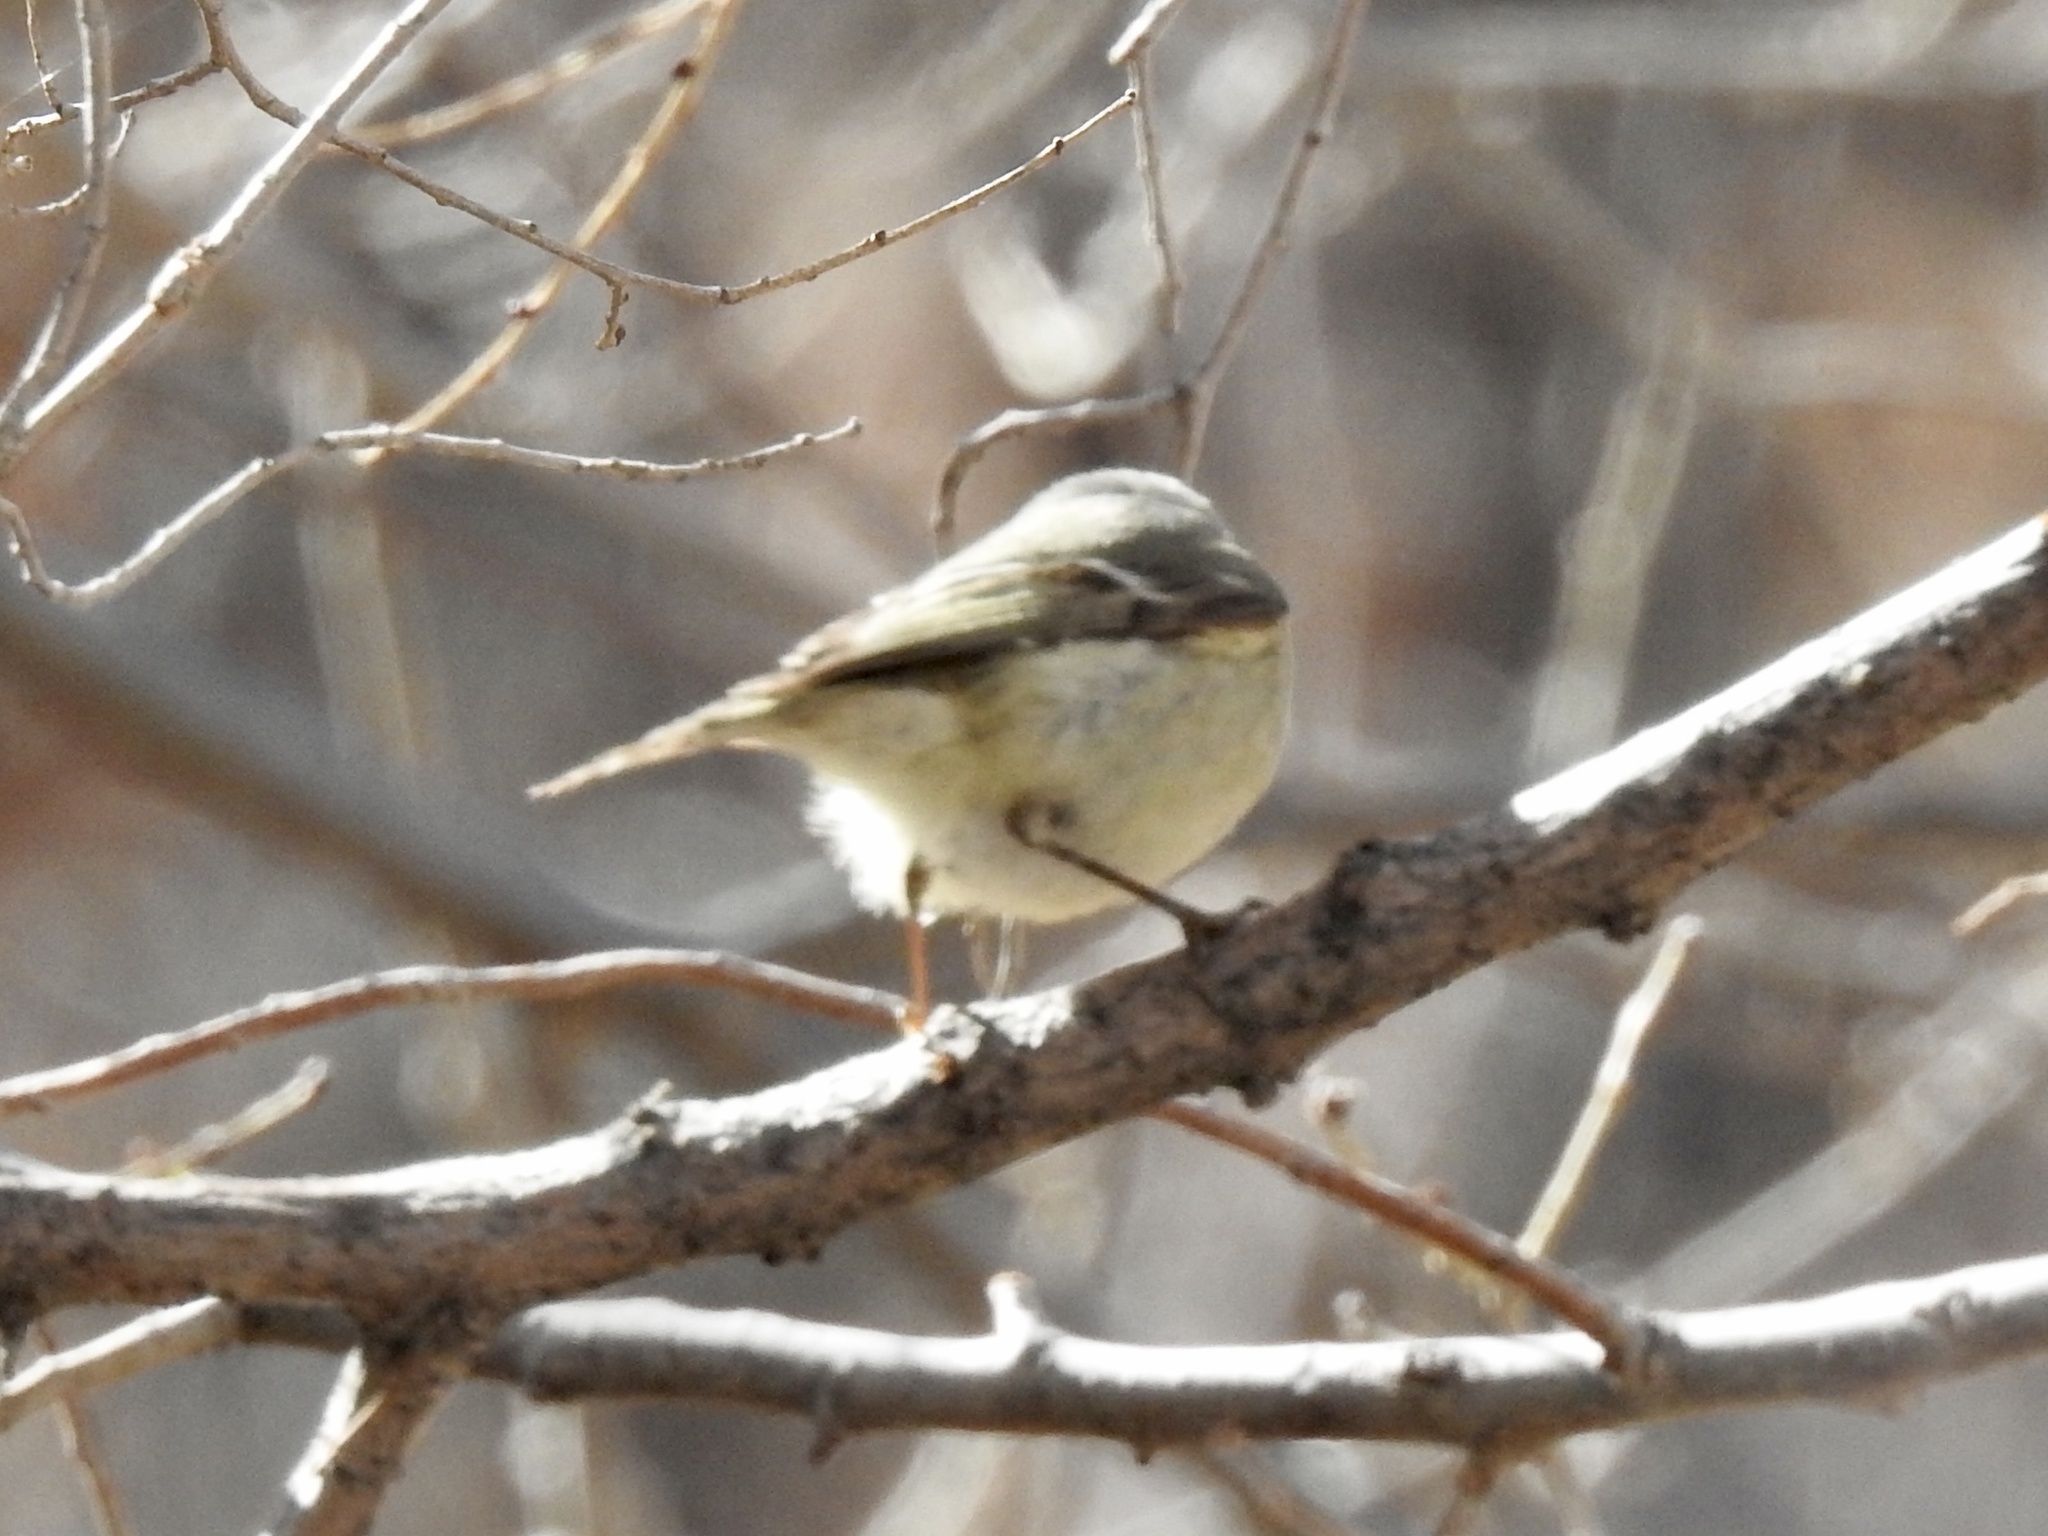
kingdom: Animalia
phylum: Chordata
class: Aves
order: Passeriformes
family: Regulidae
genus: Regulus
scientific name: Regulus calendula
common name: Ruby-crowned kinglet
